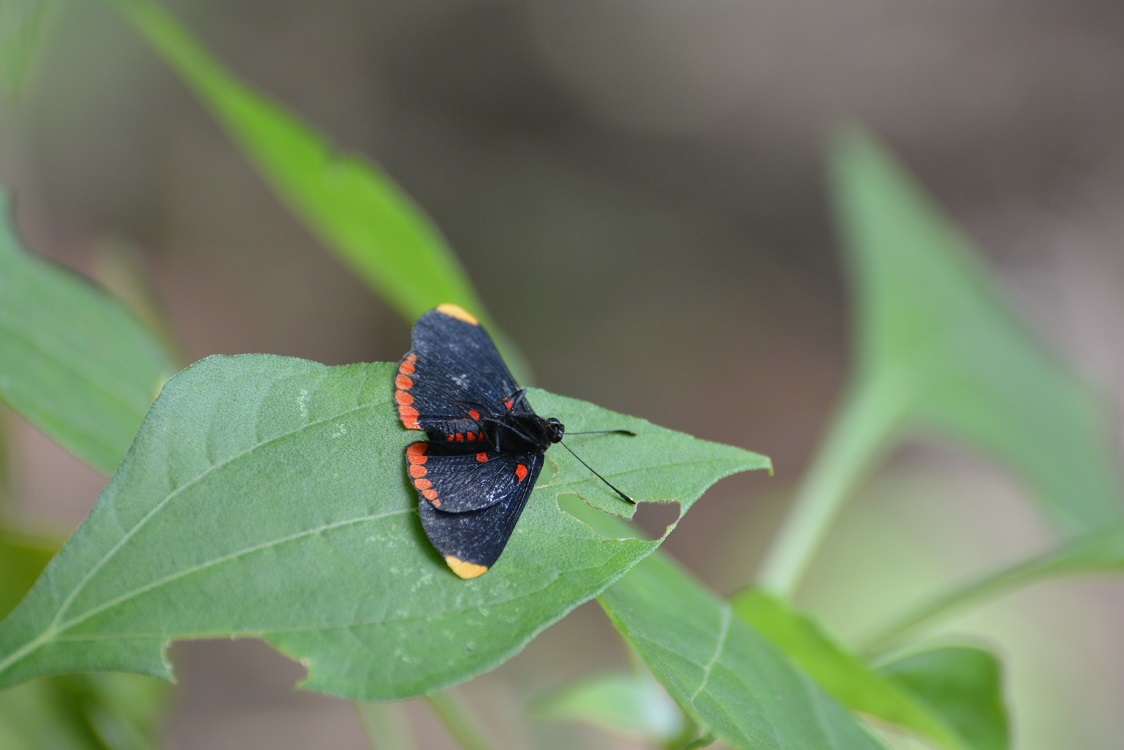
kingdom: Animalia
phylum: Arthropoda
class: Insecta
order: Lepidoptera
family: Lycaenidae
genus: Melanis
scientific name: Melanis pixe
